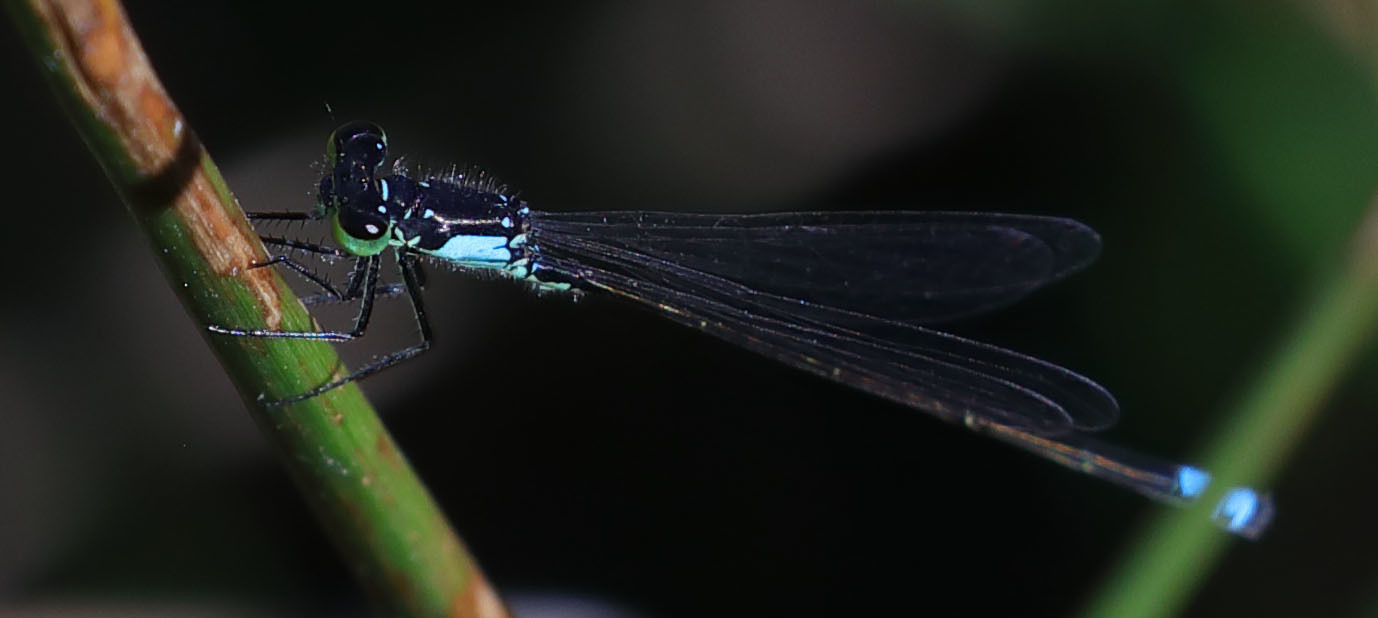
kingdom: Animalia
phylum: Arthropoda
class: Insecta
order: Odonata
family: Coenagrionidae
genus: Ischnura
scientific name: Ischnura cervula
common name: Pacific forktail
